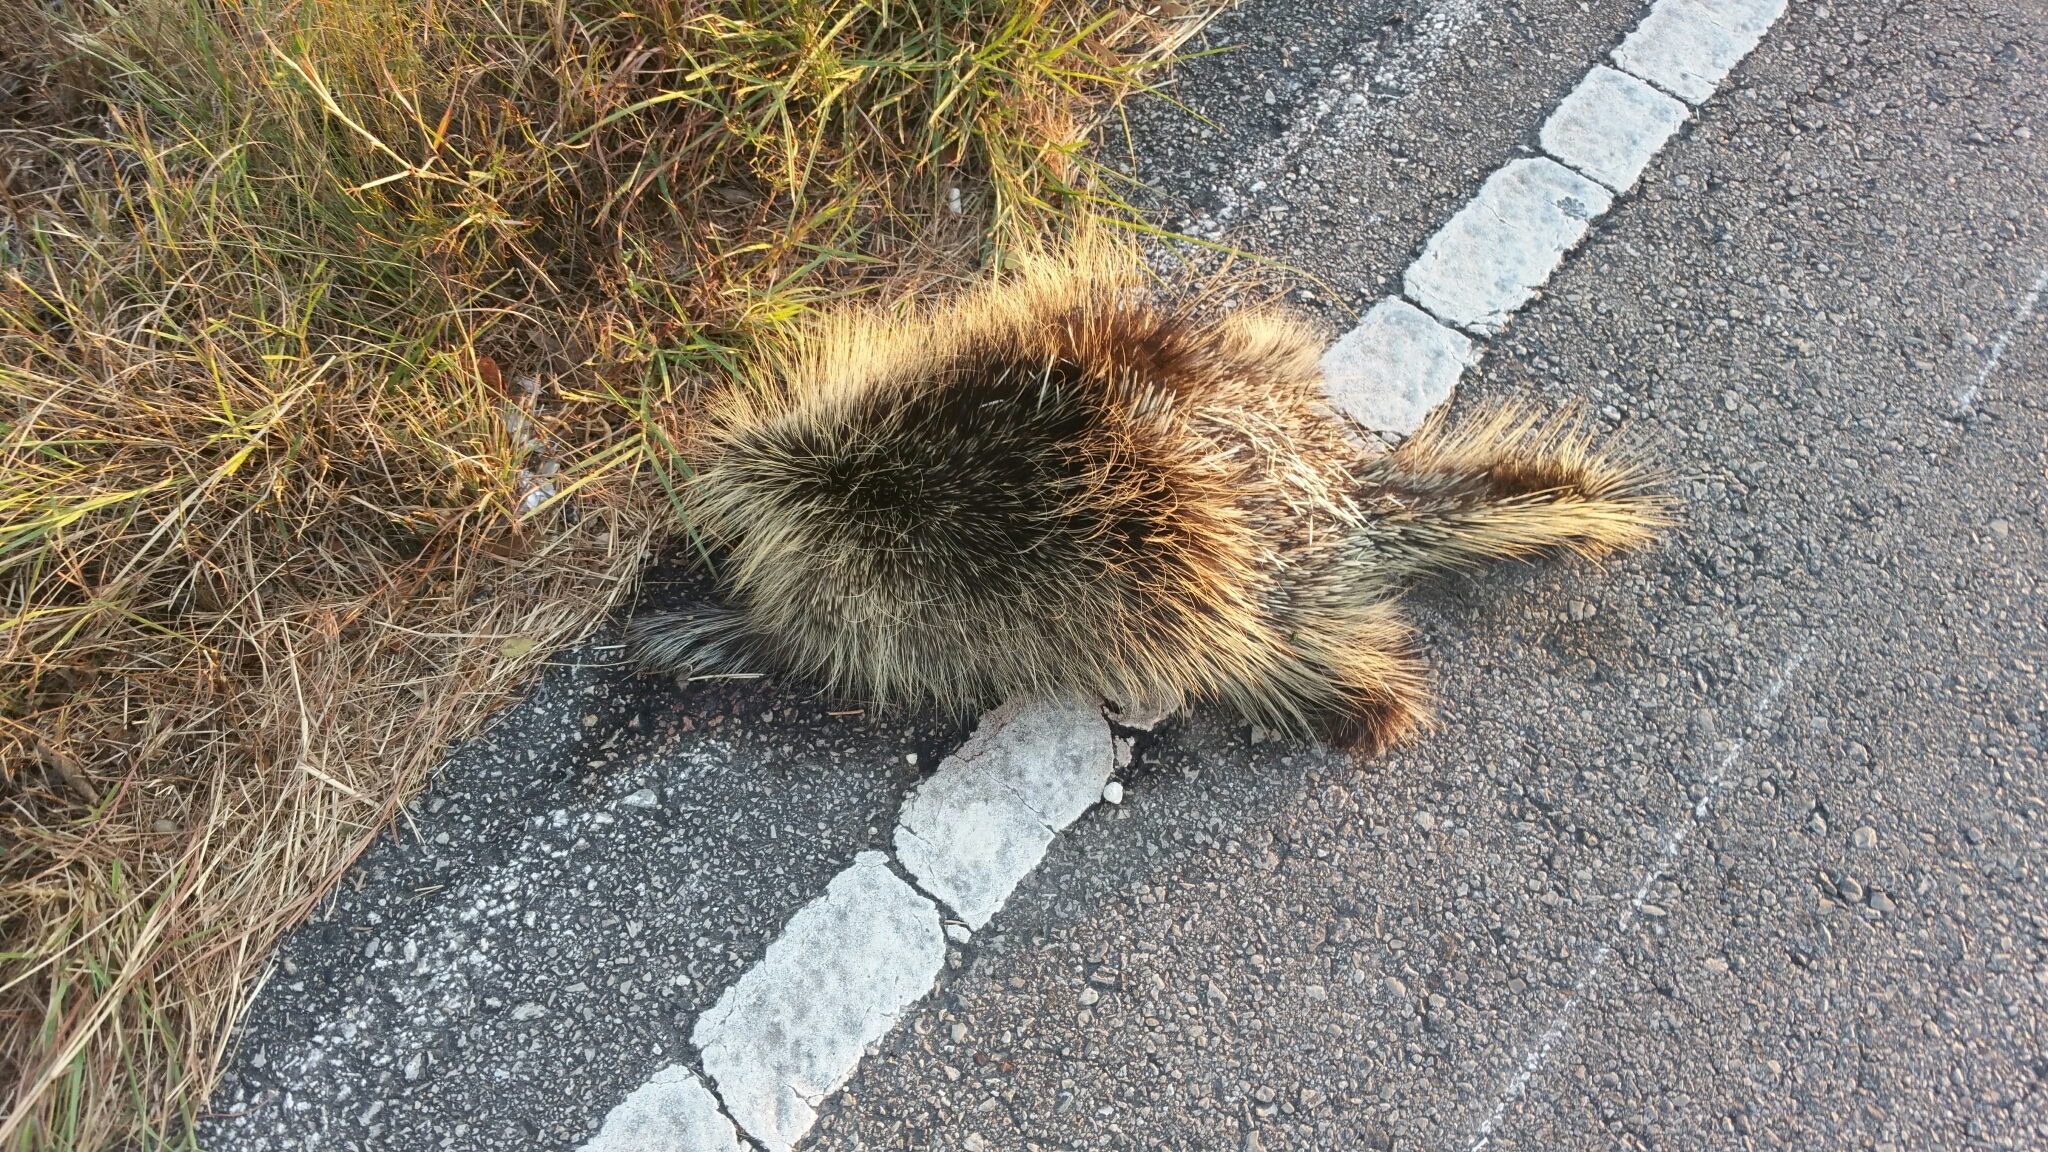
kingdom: Animalia
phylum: Chordata
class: Mammalia
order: Rodentia
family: Erethizontidae
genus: Erethizon
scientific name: Erethizon dorsatus
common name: North american porcupine
